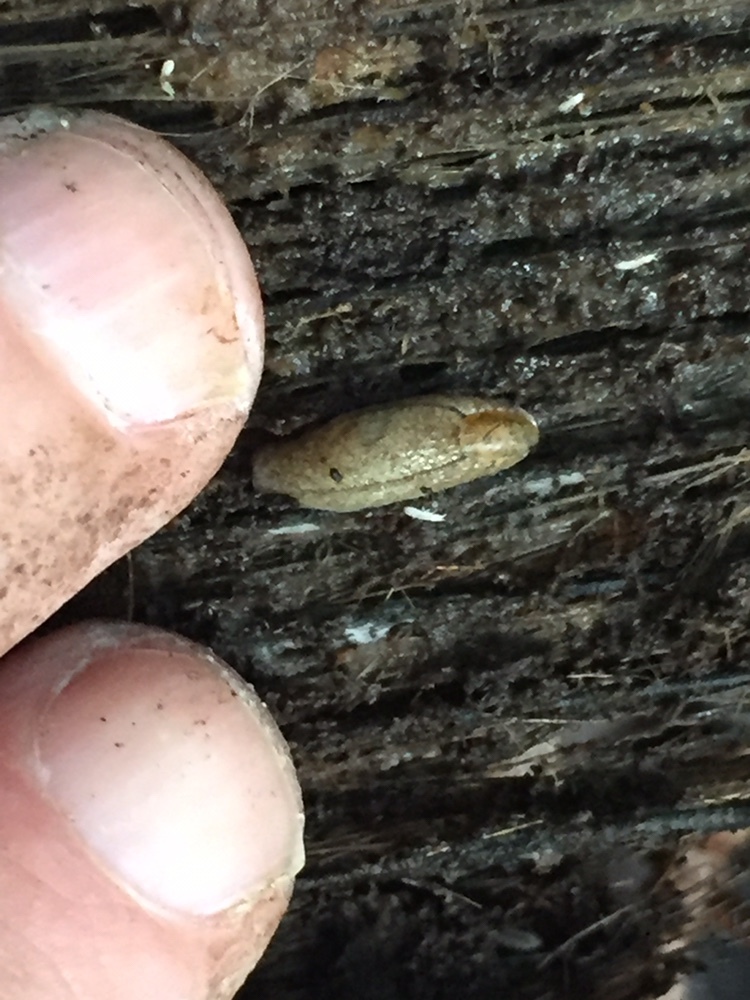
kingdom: Animalia
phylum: Mollusca
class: Gastropoda
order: Stylommatophora
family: Testacellidae
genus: Testacella
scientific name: Testacella maugei
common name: Mauge's slug
